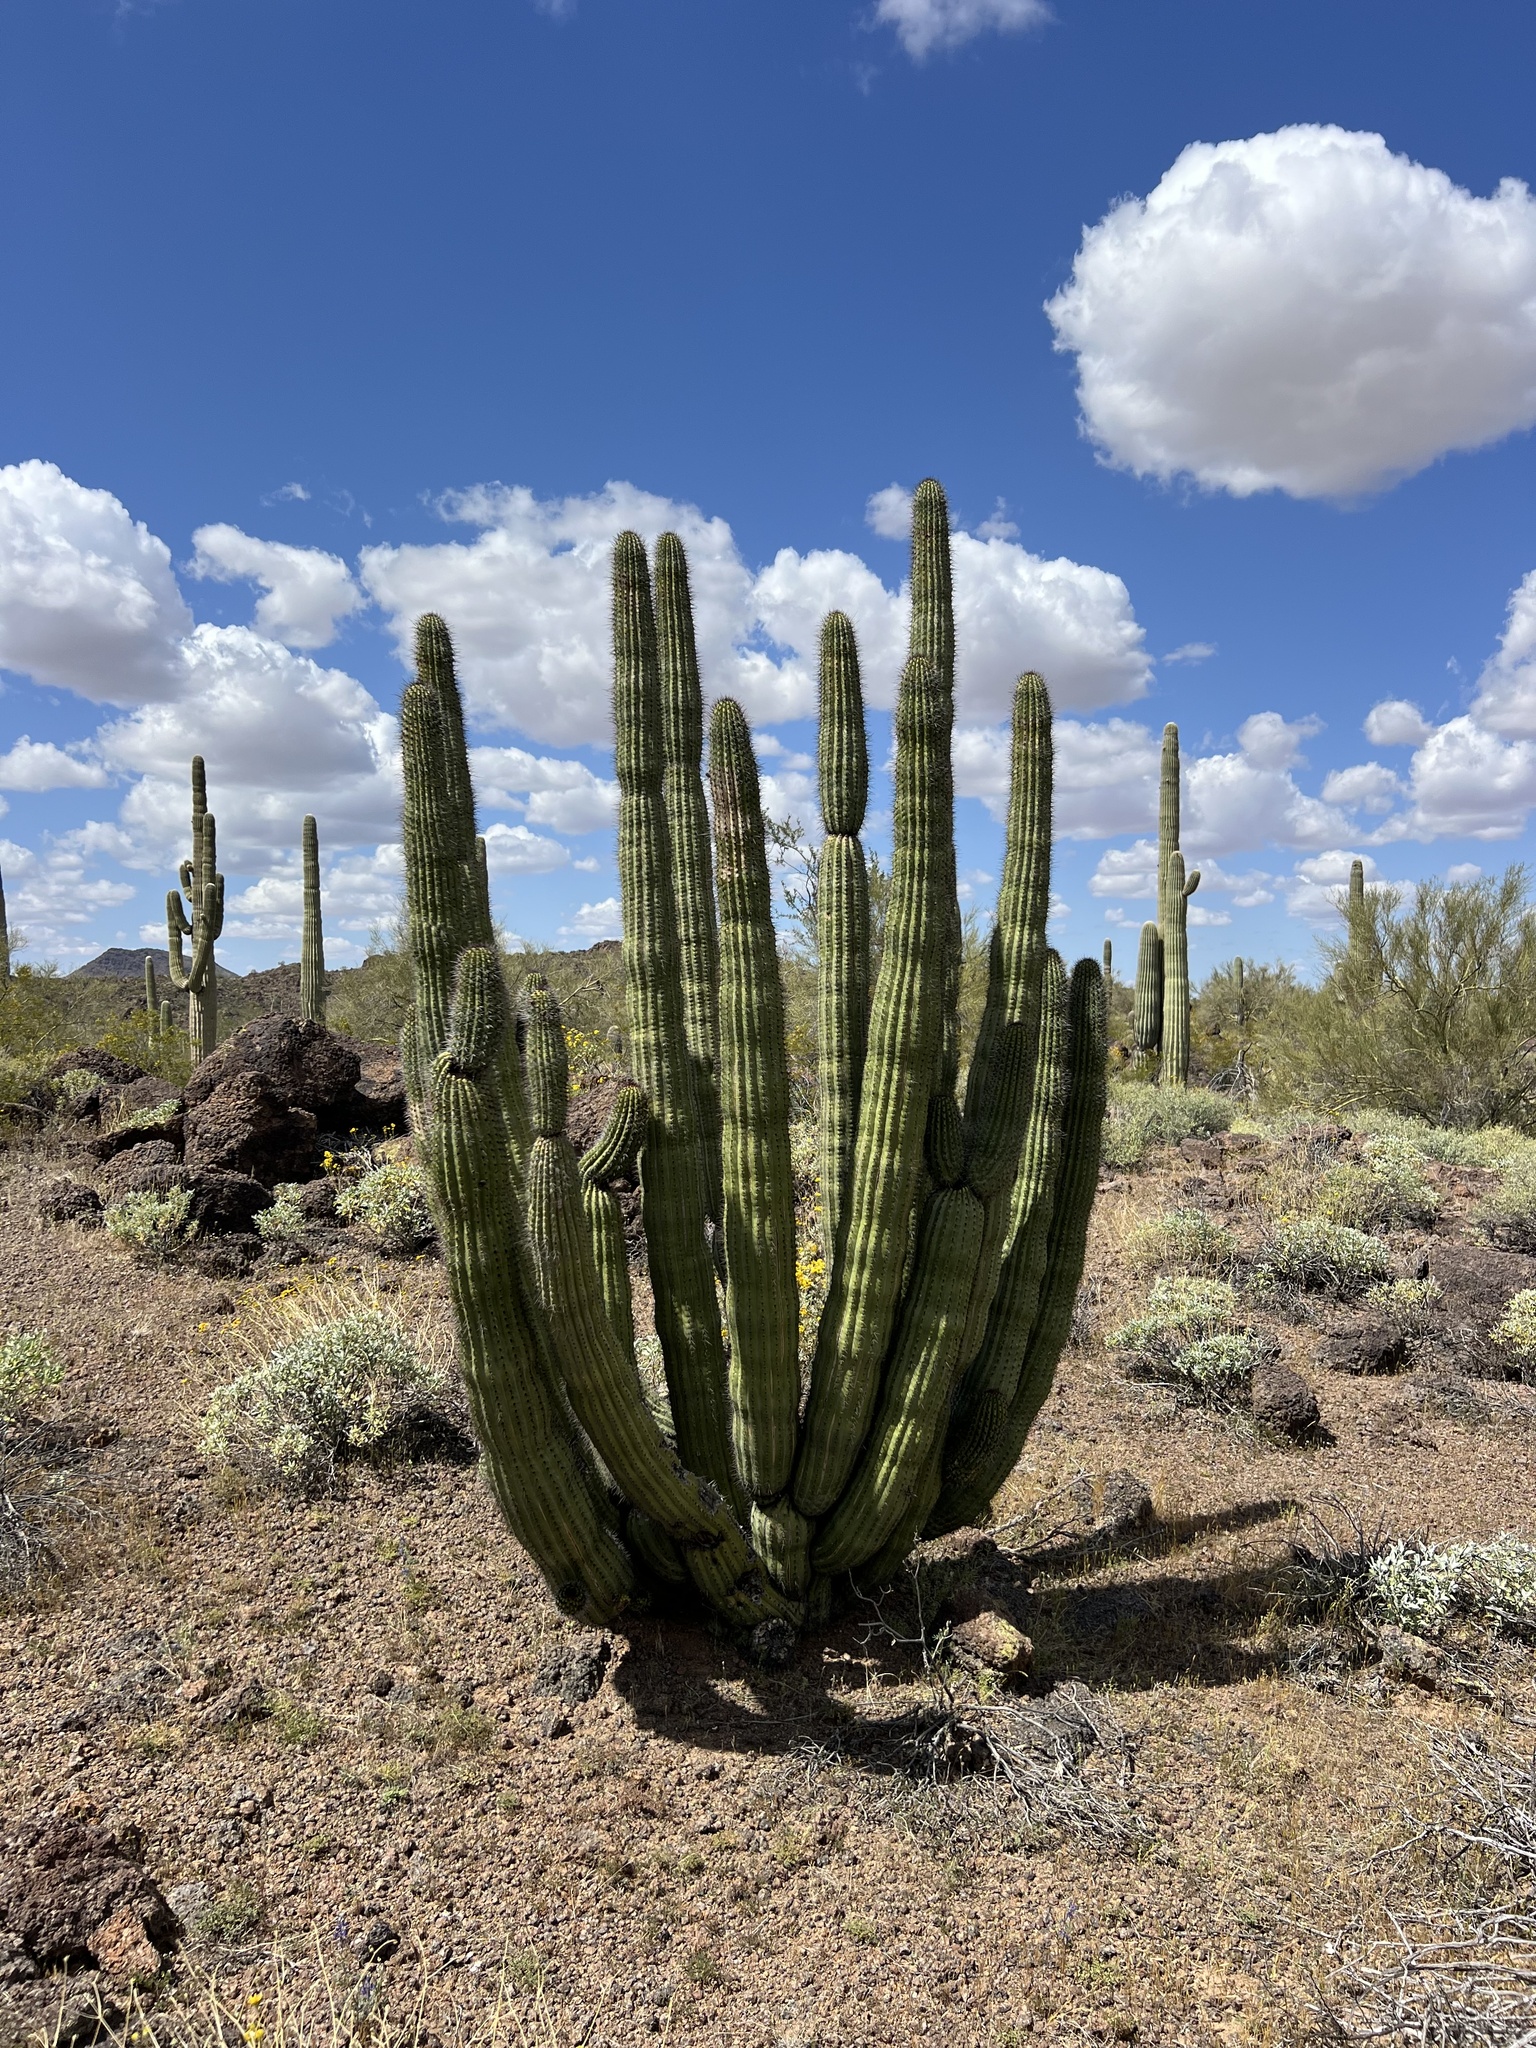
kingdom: Plantae
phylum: Tracheophyta
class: Magnoliopsida
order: Caryophyllales
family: Cactaceae
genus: Stenocereus
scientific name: Stenocereus thurberi
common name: Organ pipe cactus
